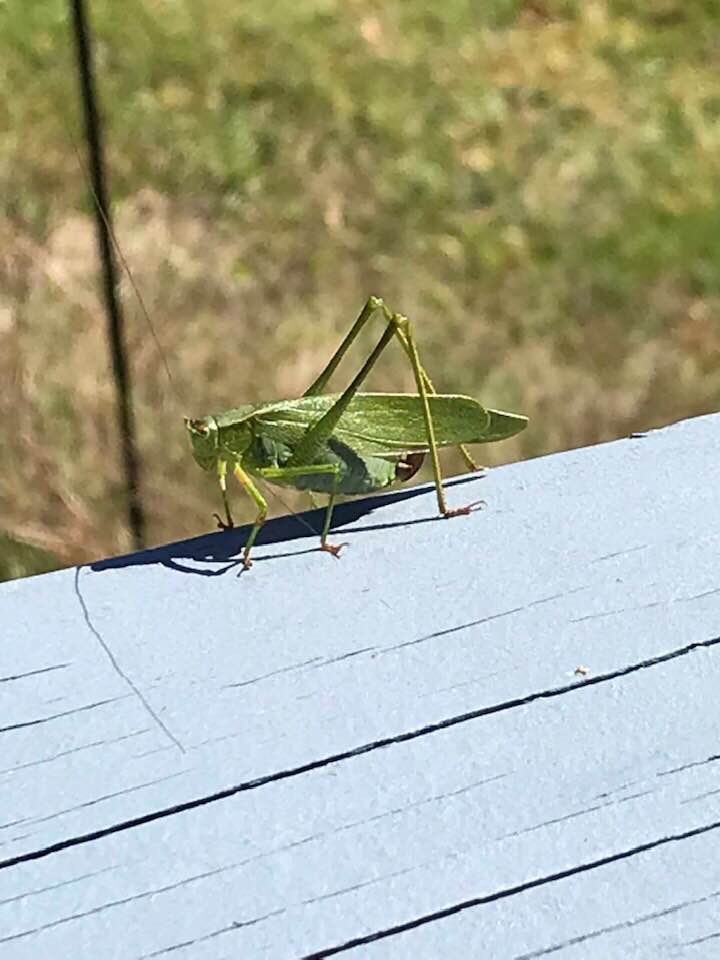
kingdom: Animalia
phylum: Arthropoda
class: Insecta
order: Orthoptera
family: Tettigoniidae
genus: Scudderia
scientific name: Scudderia furcata
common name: Fork-tailed bush katydid
